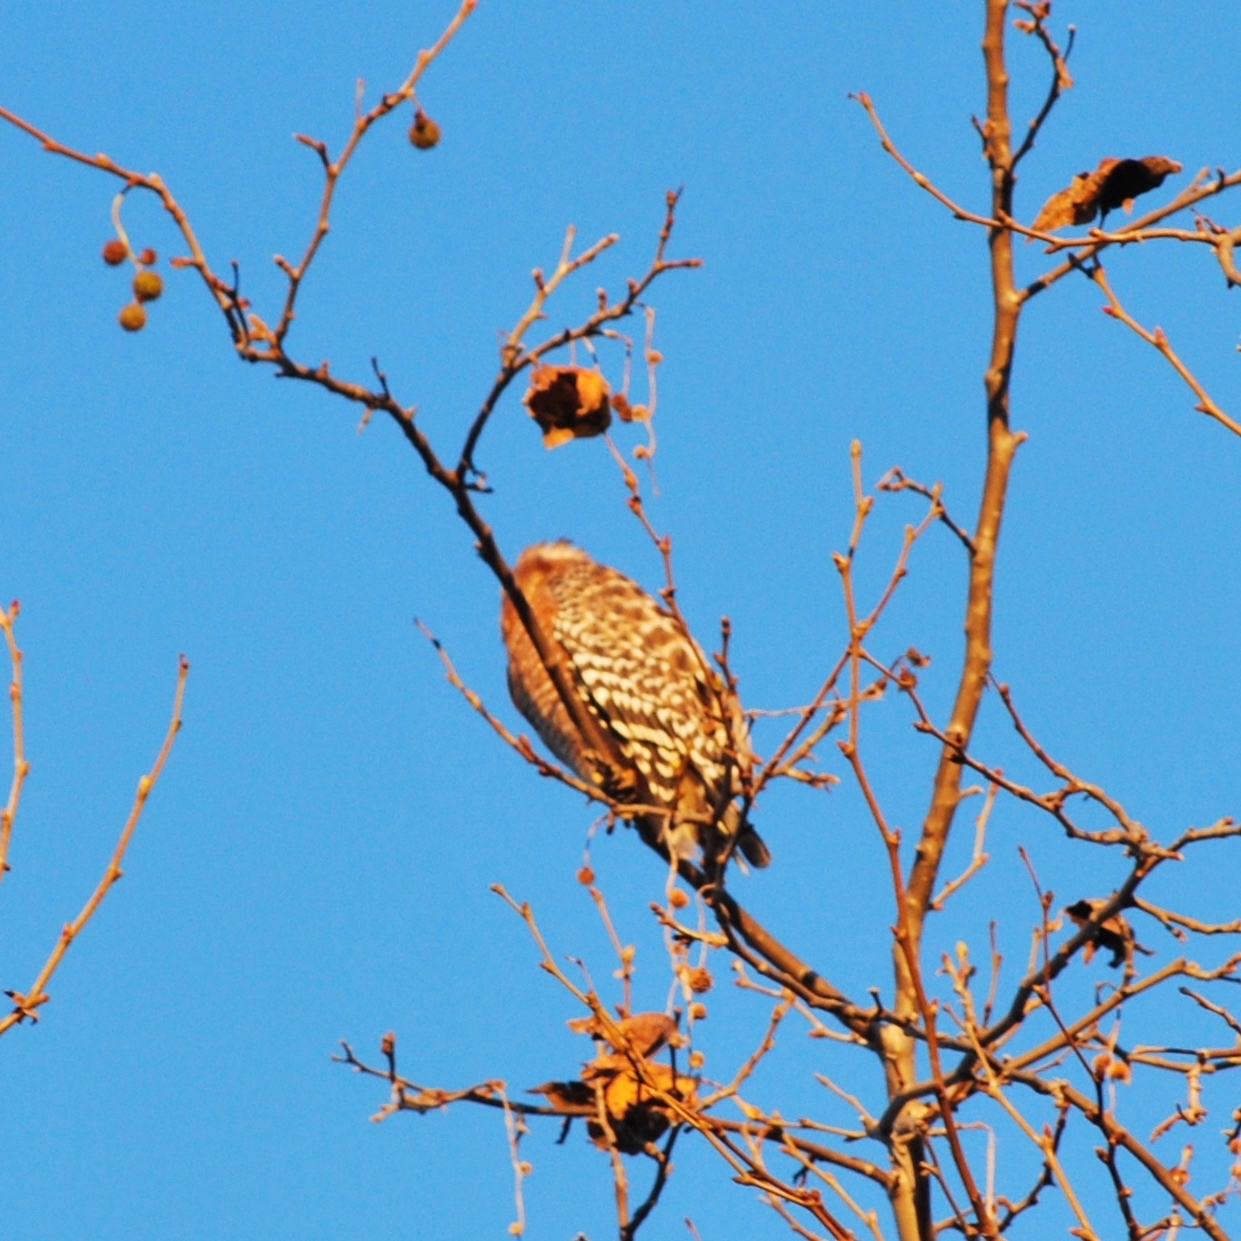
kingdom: Animalia
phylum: Chordata
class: Aves
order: Accipitriformes
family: Accipitridae
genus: Buteo
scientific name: Buteo lineatus
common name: Red-shouldered hawk
